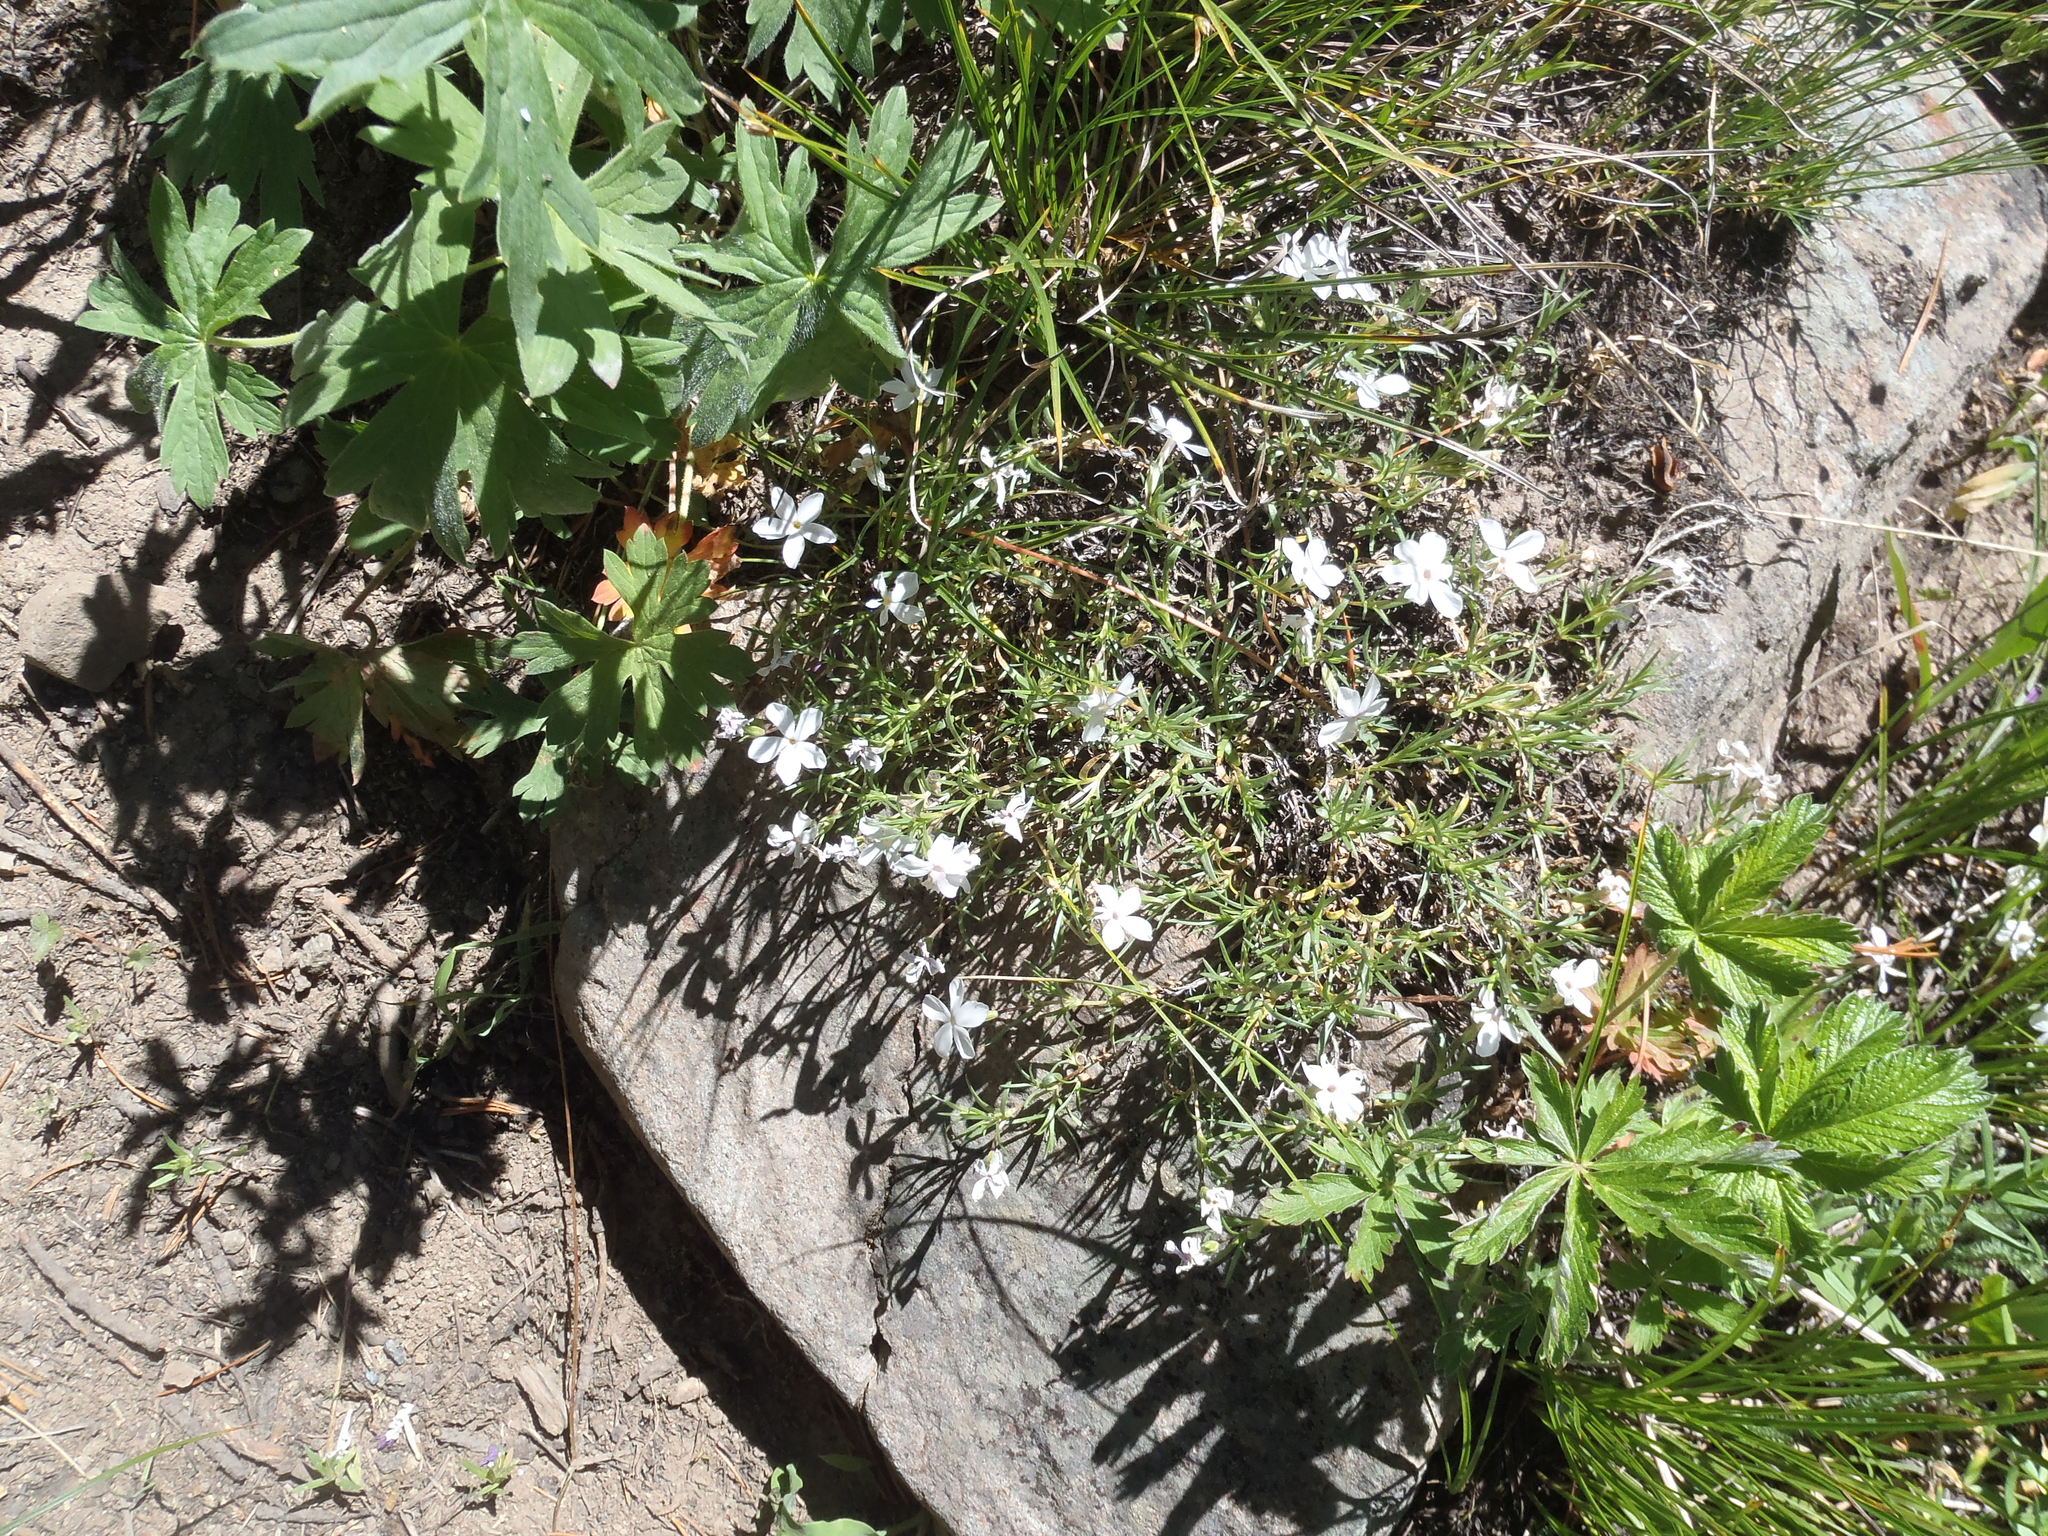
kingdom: Plantae
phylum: Tracheophyta
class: Magnoliopsida
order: Ericales
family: Polemoniaceae
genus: Phlox
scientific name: Phlox multiflora
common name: Rocky mountain phlox
